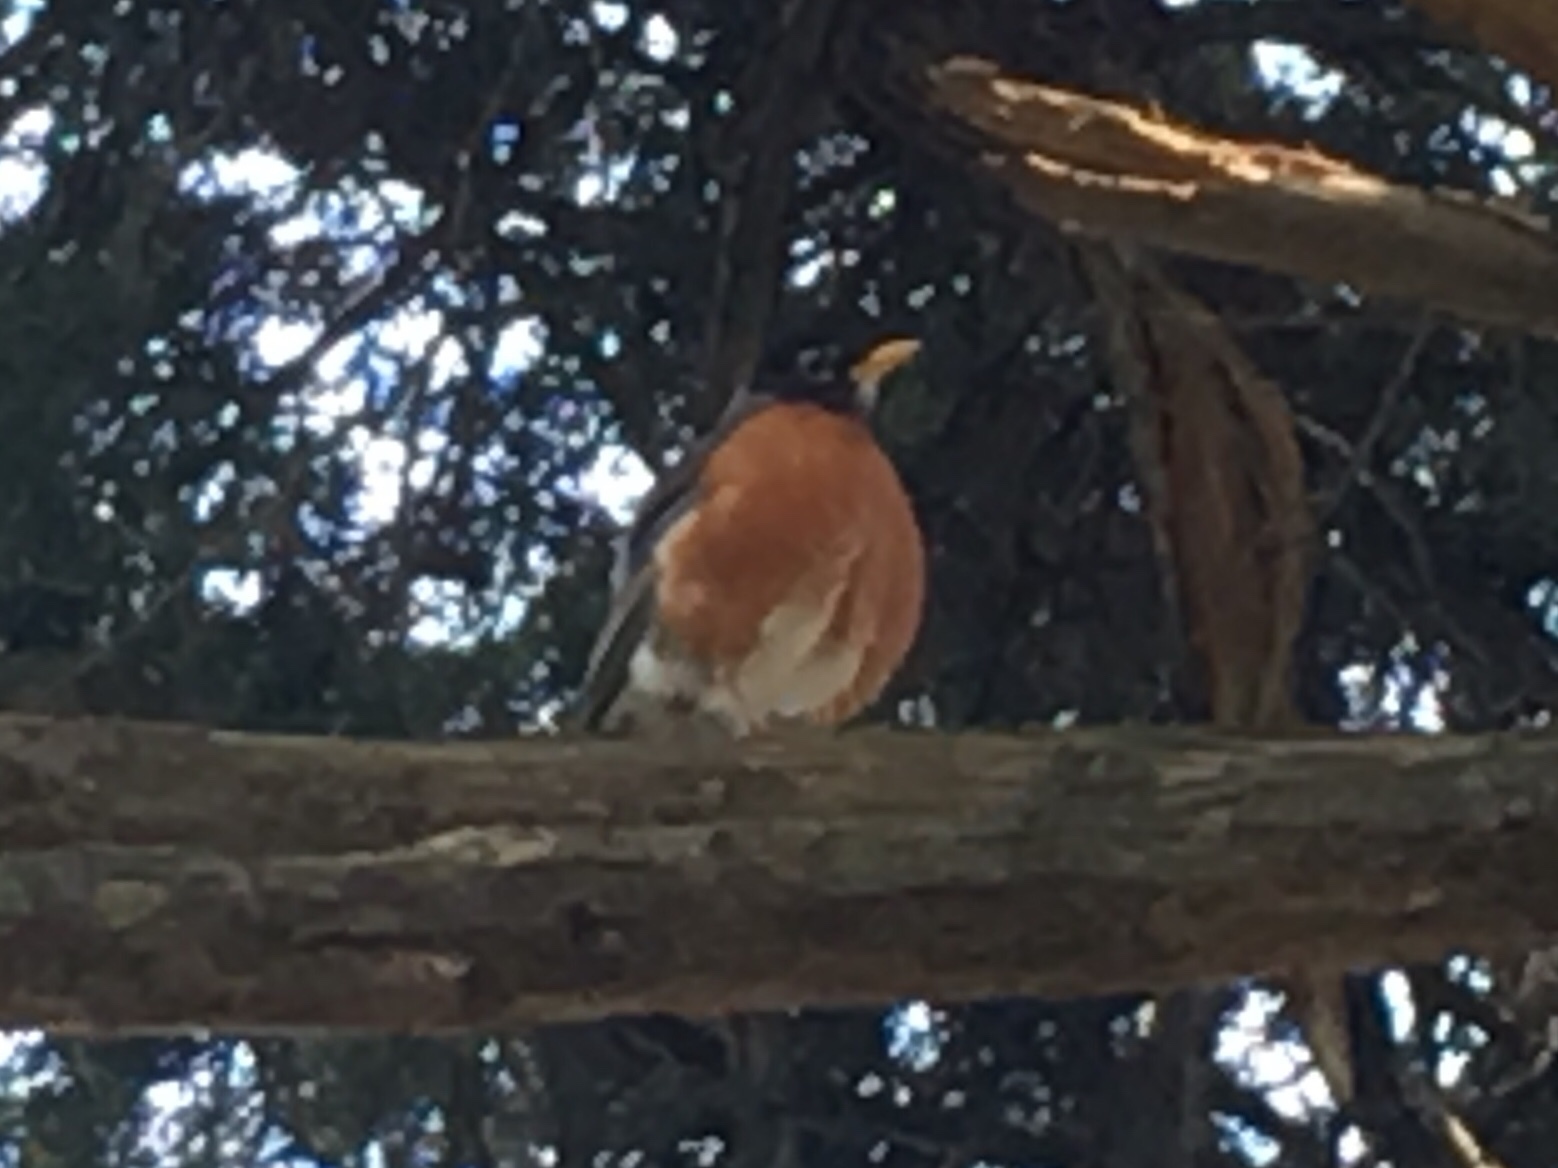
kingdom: Animalia
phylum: Chordata
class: Aves
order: Passeriformes
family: Turdidae
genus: Turdus
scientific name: Turdus migratorius
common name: American robin
